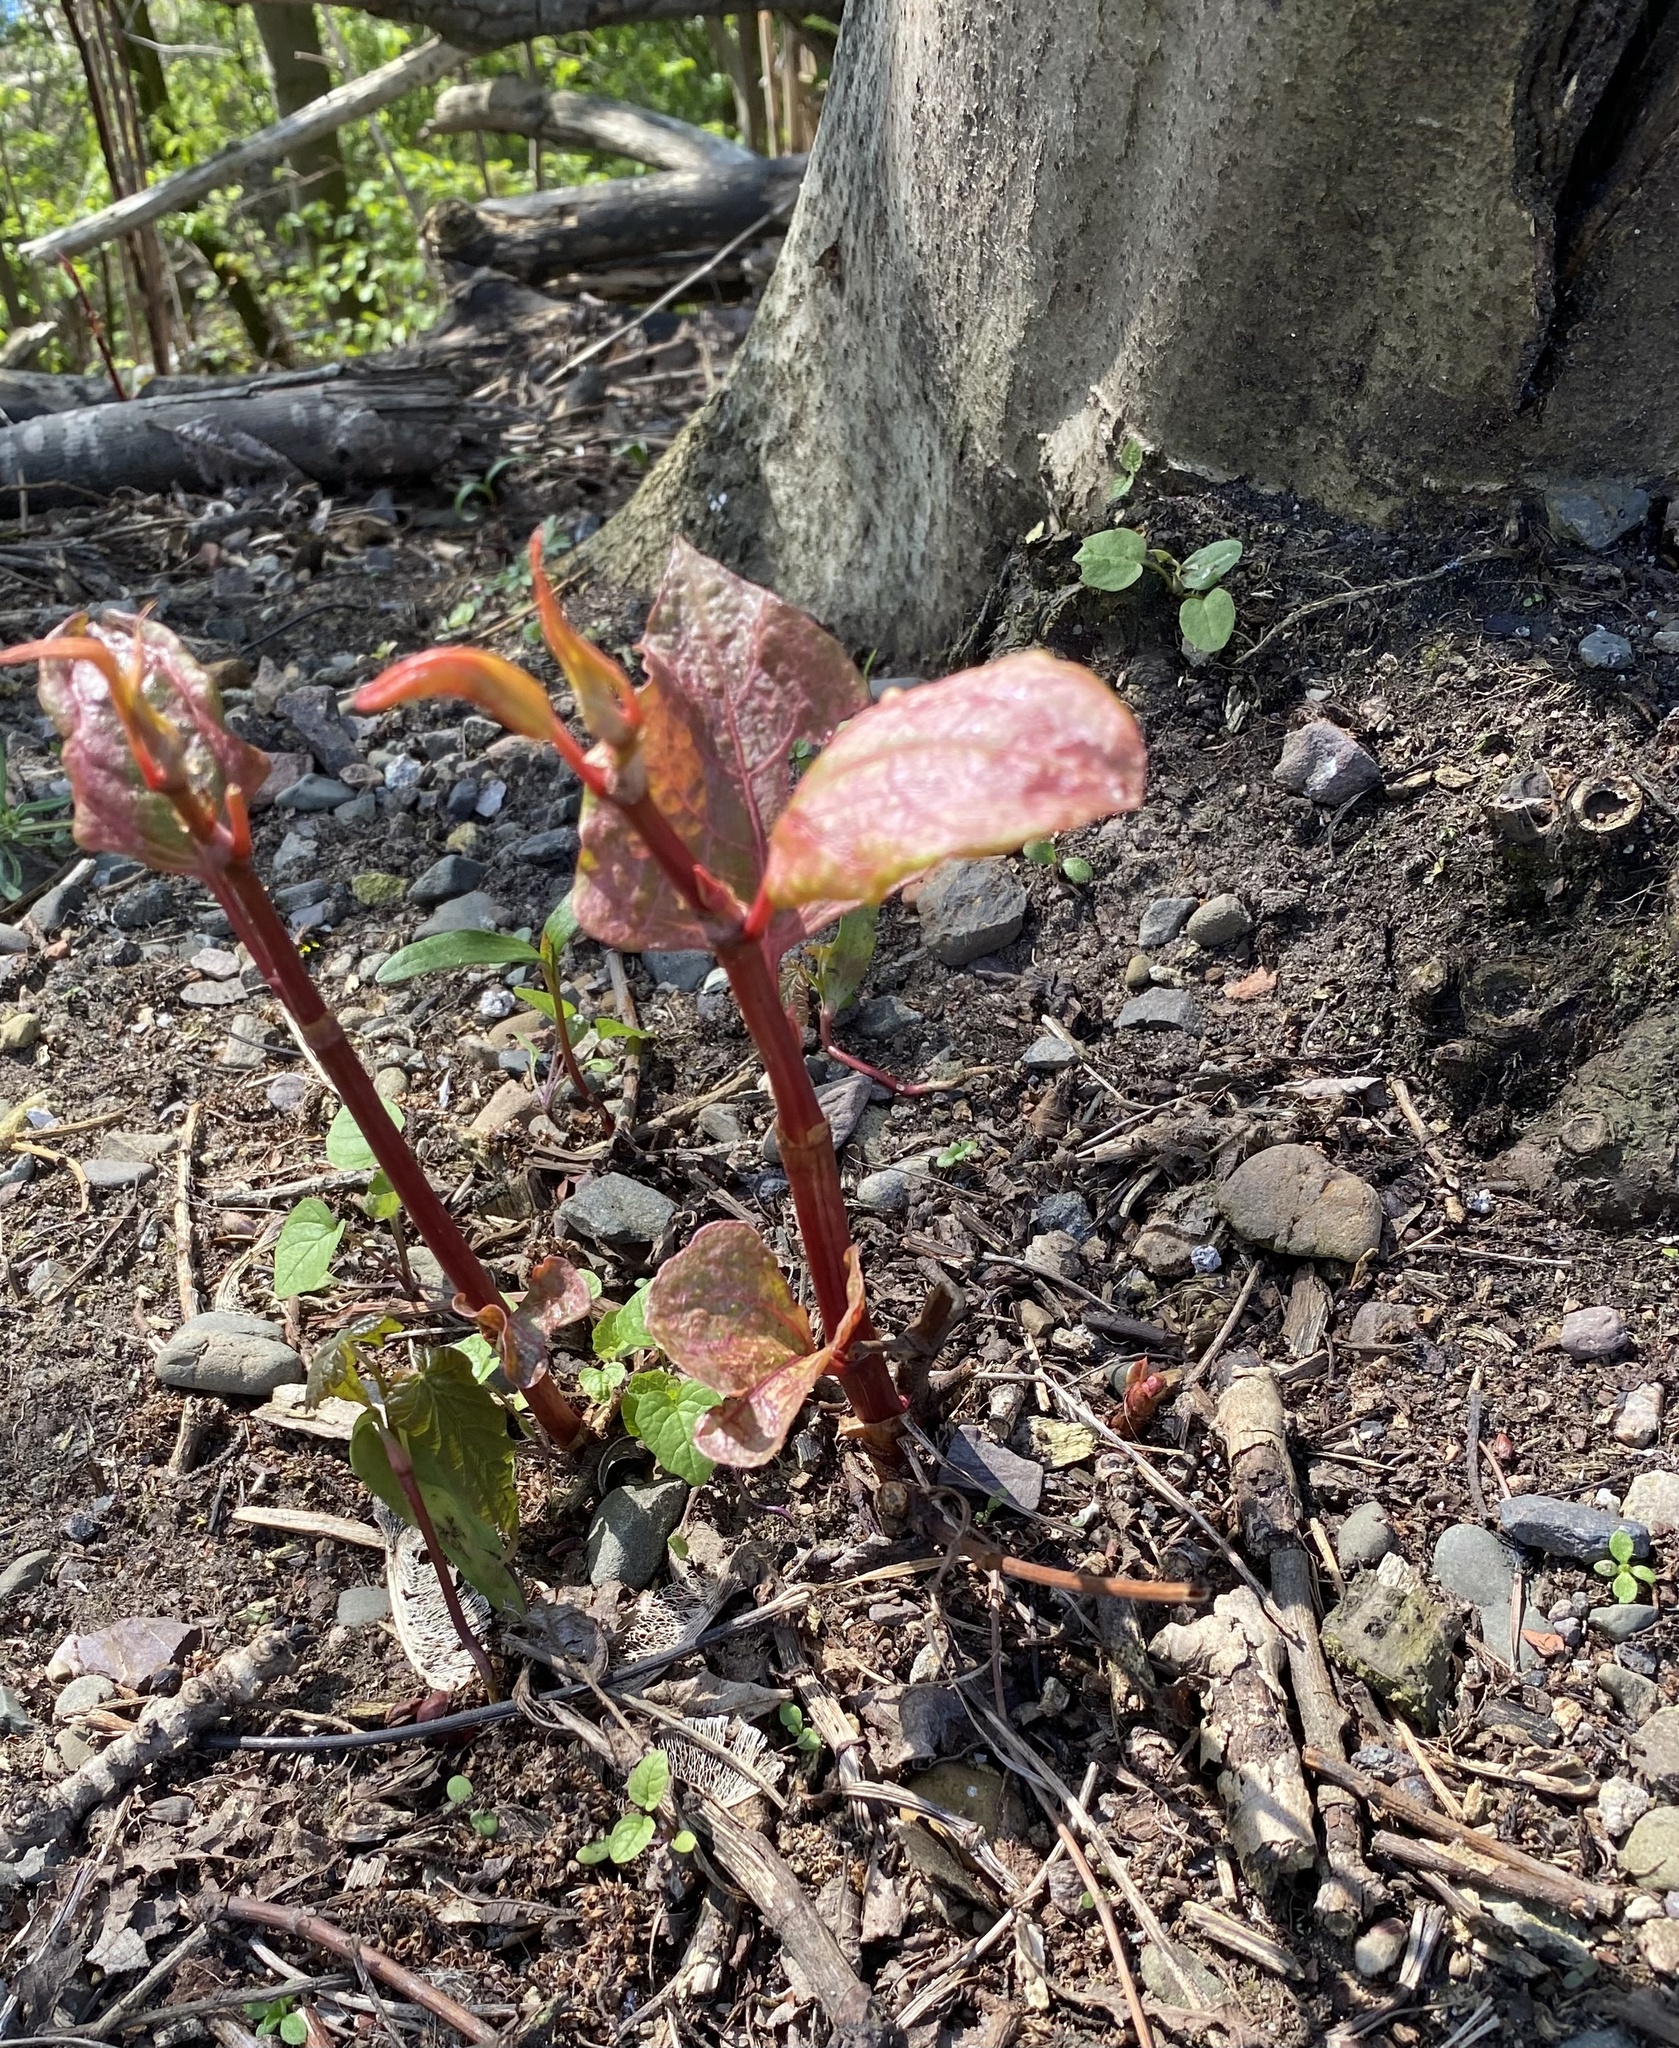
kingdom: Plantae
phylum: Tracheophyta
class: Magnoliopsida
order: Caryophyllales
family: Polygonaceae
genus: Reynoutria
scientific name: Reynoutria japonica
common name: Japanese knotweed
